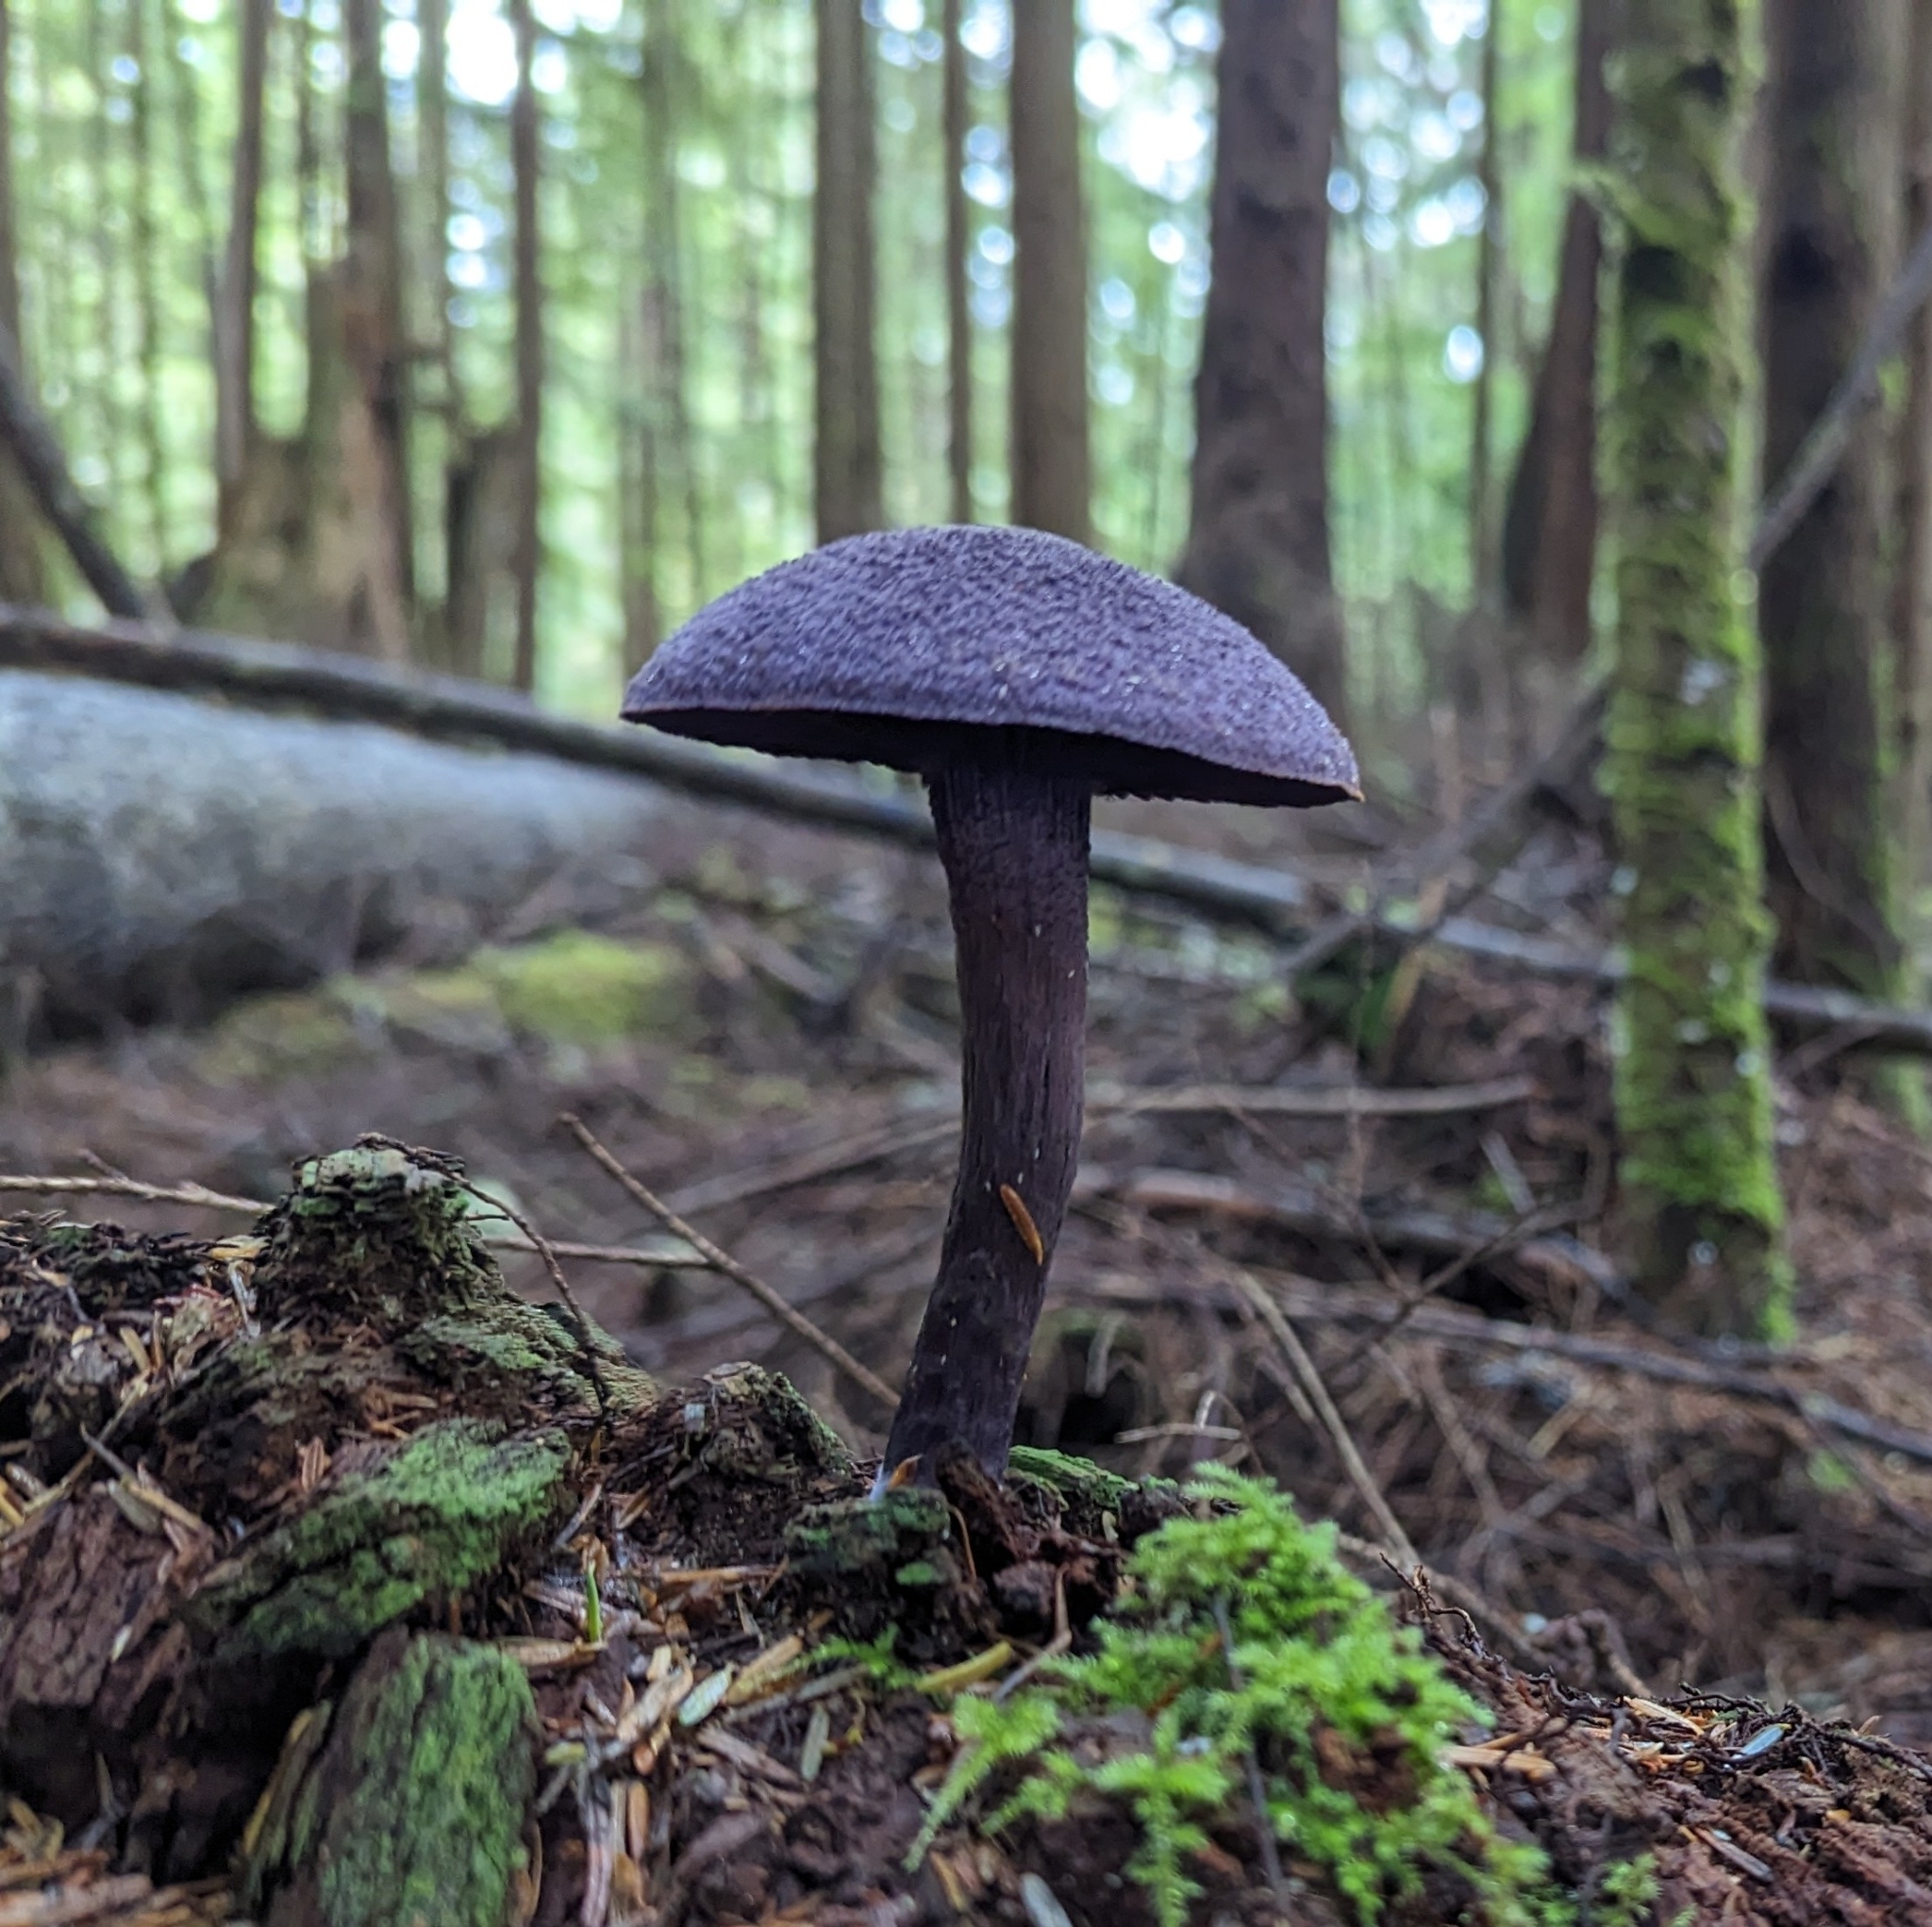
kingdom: Fungi
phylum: Basidiomycota
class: Agaricomycetes
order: Agaricales
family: Cortinariaceae
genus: Cortinarius
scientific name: Cortinarius violaceus
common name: Violet webcap
